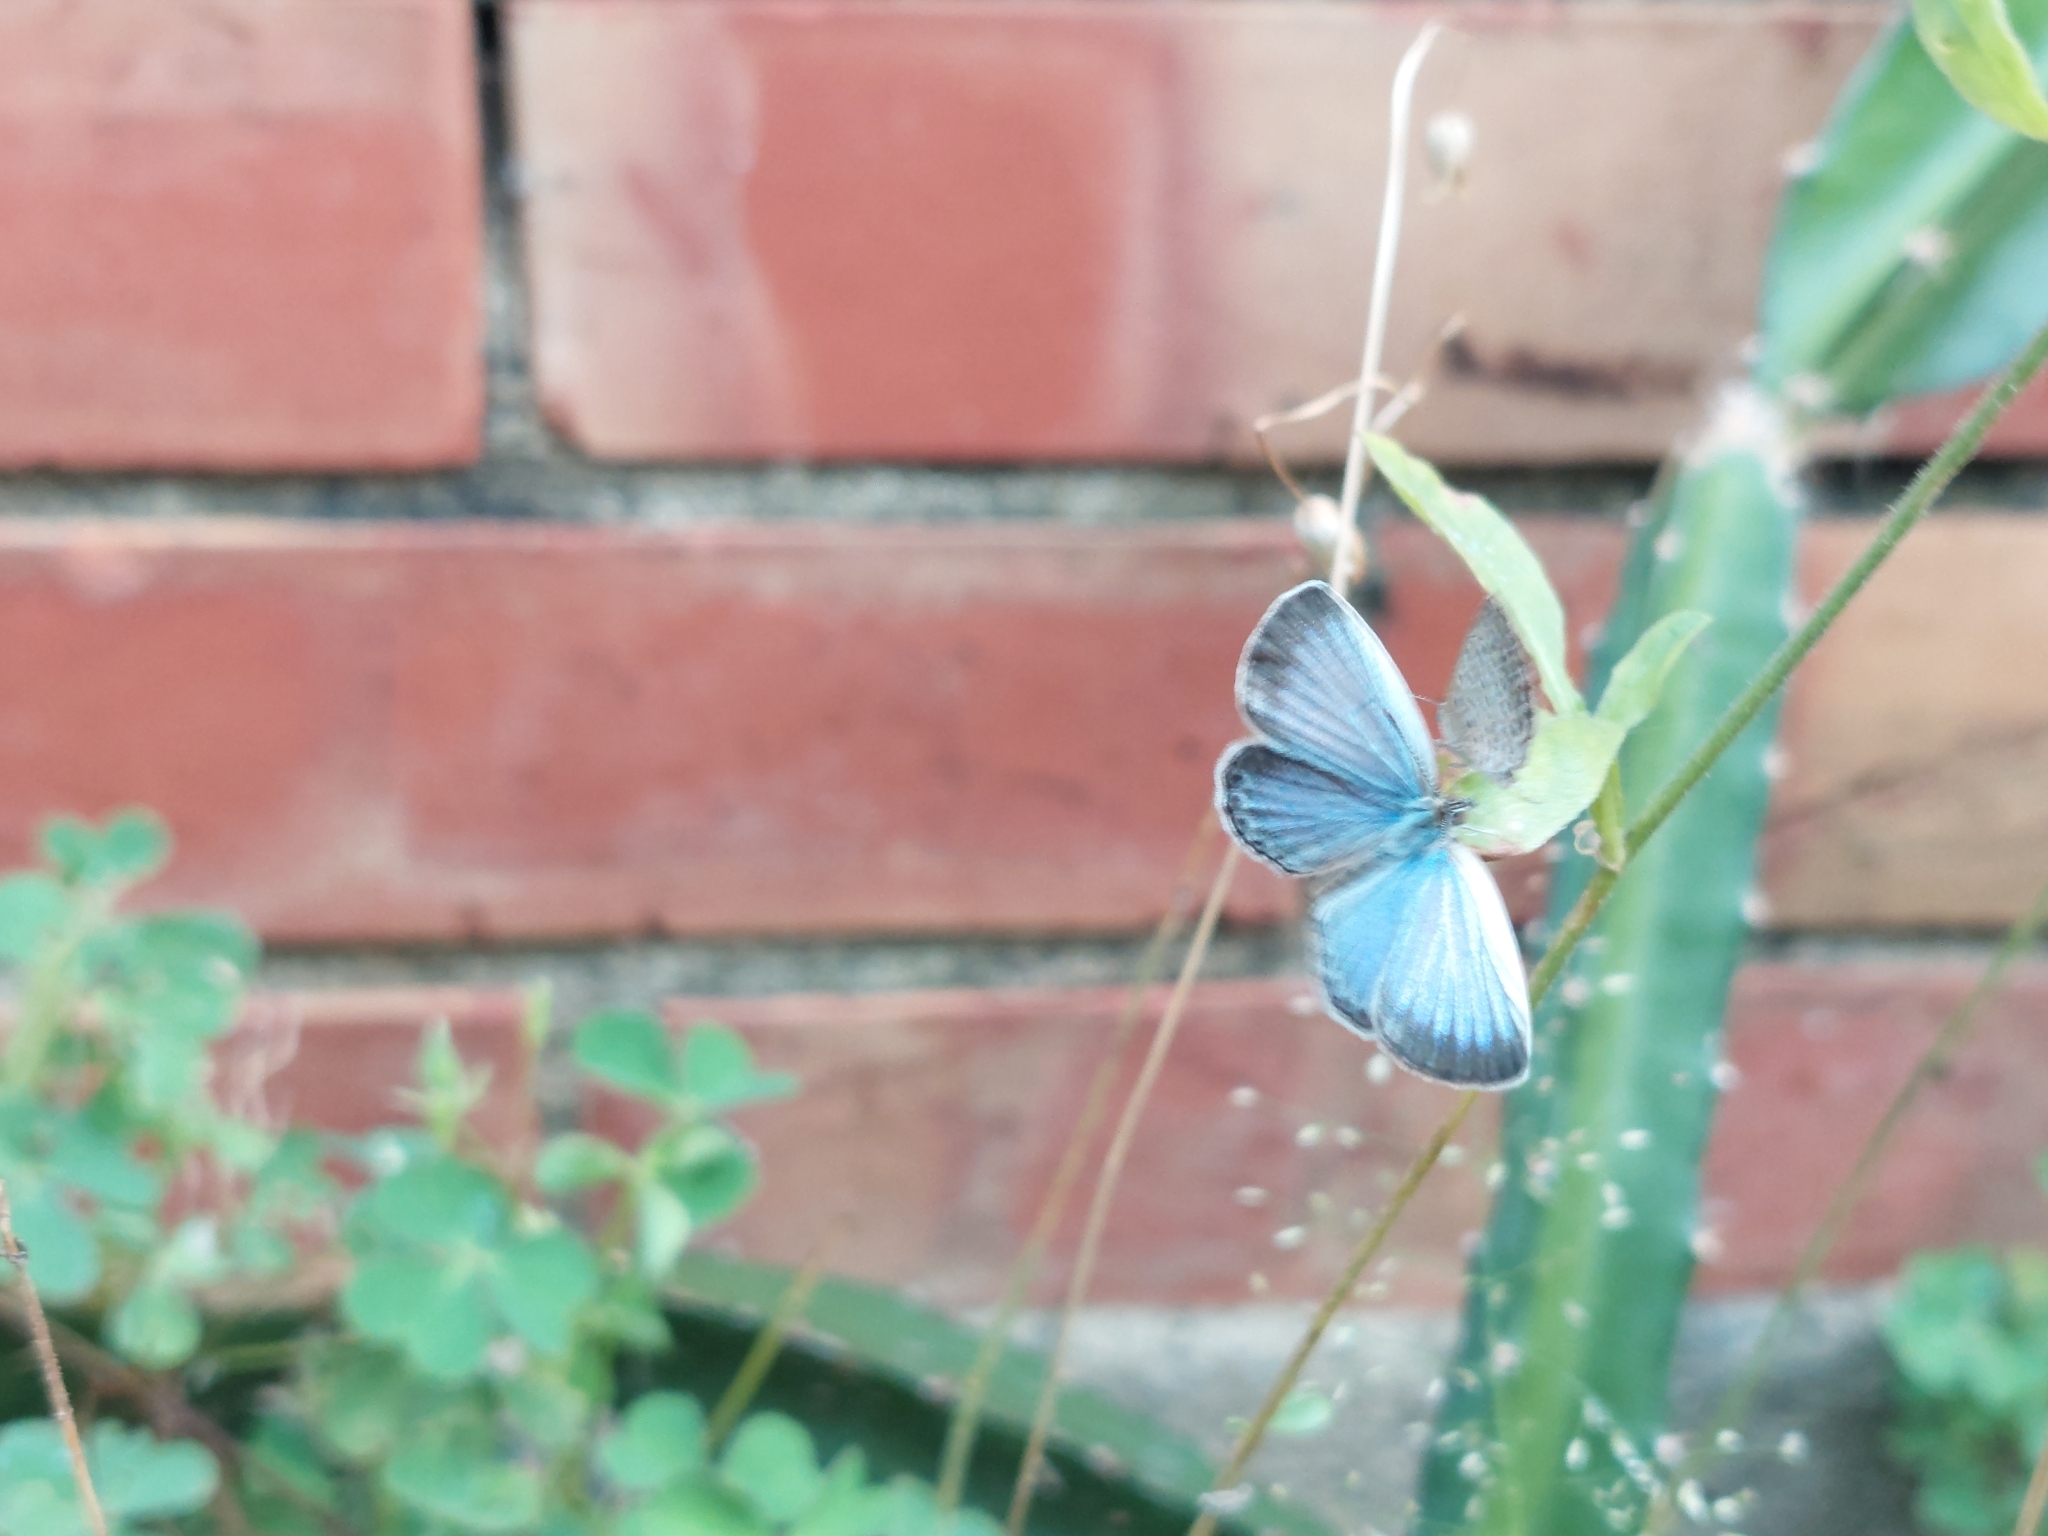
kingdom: Animalia
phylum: Arthropoda
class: Insecta
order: Lepidoptera
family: Lycaenidae
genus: Pseudozizeeria
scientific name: Pseudozizeeria maha
